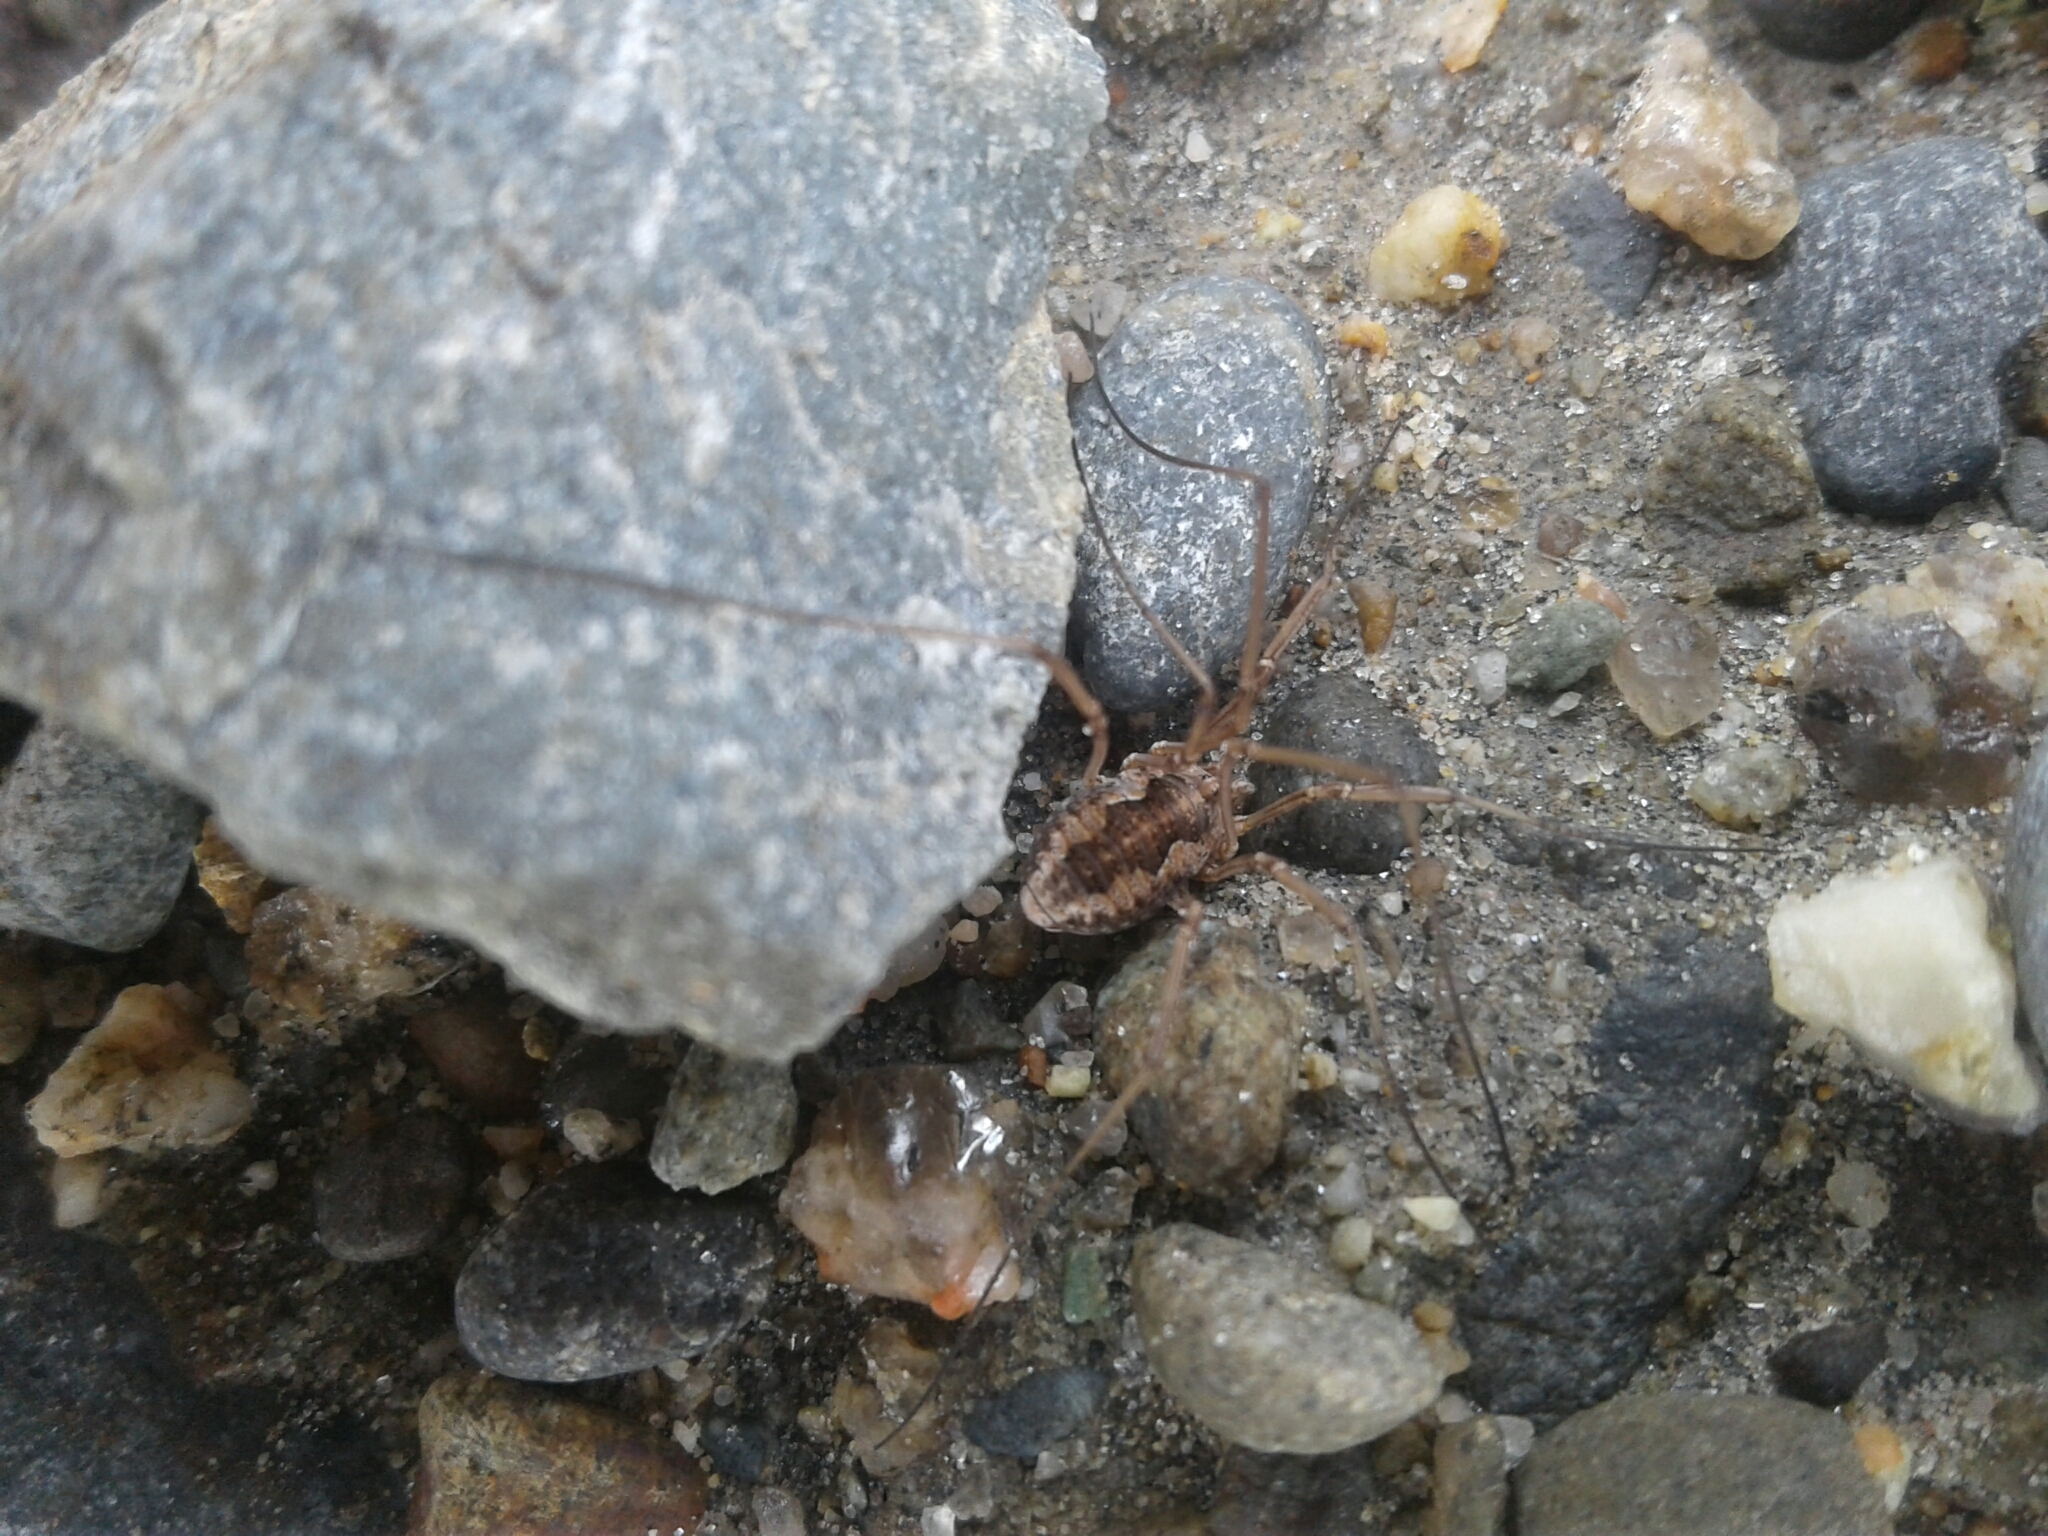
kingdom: Animalia
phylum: Arthropoda
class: Arachnida
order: Opiliones
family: Phalangiidae
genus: Phalangium
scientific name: Phalangium opilio
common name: Daddy longleg
